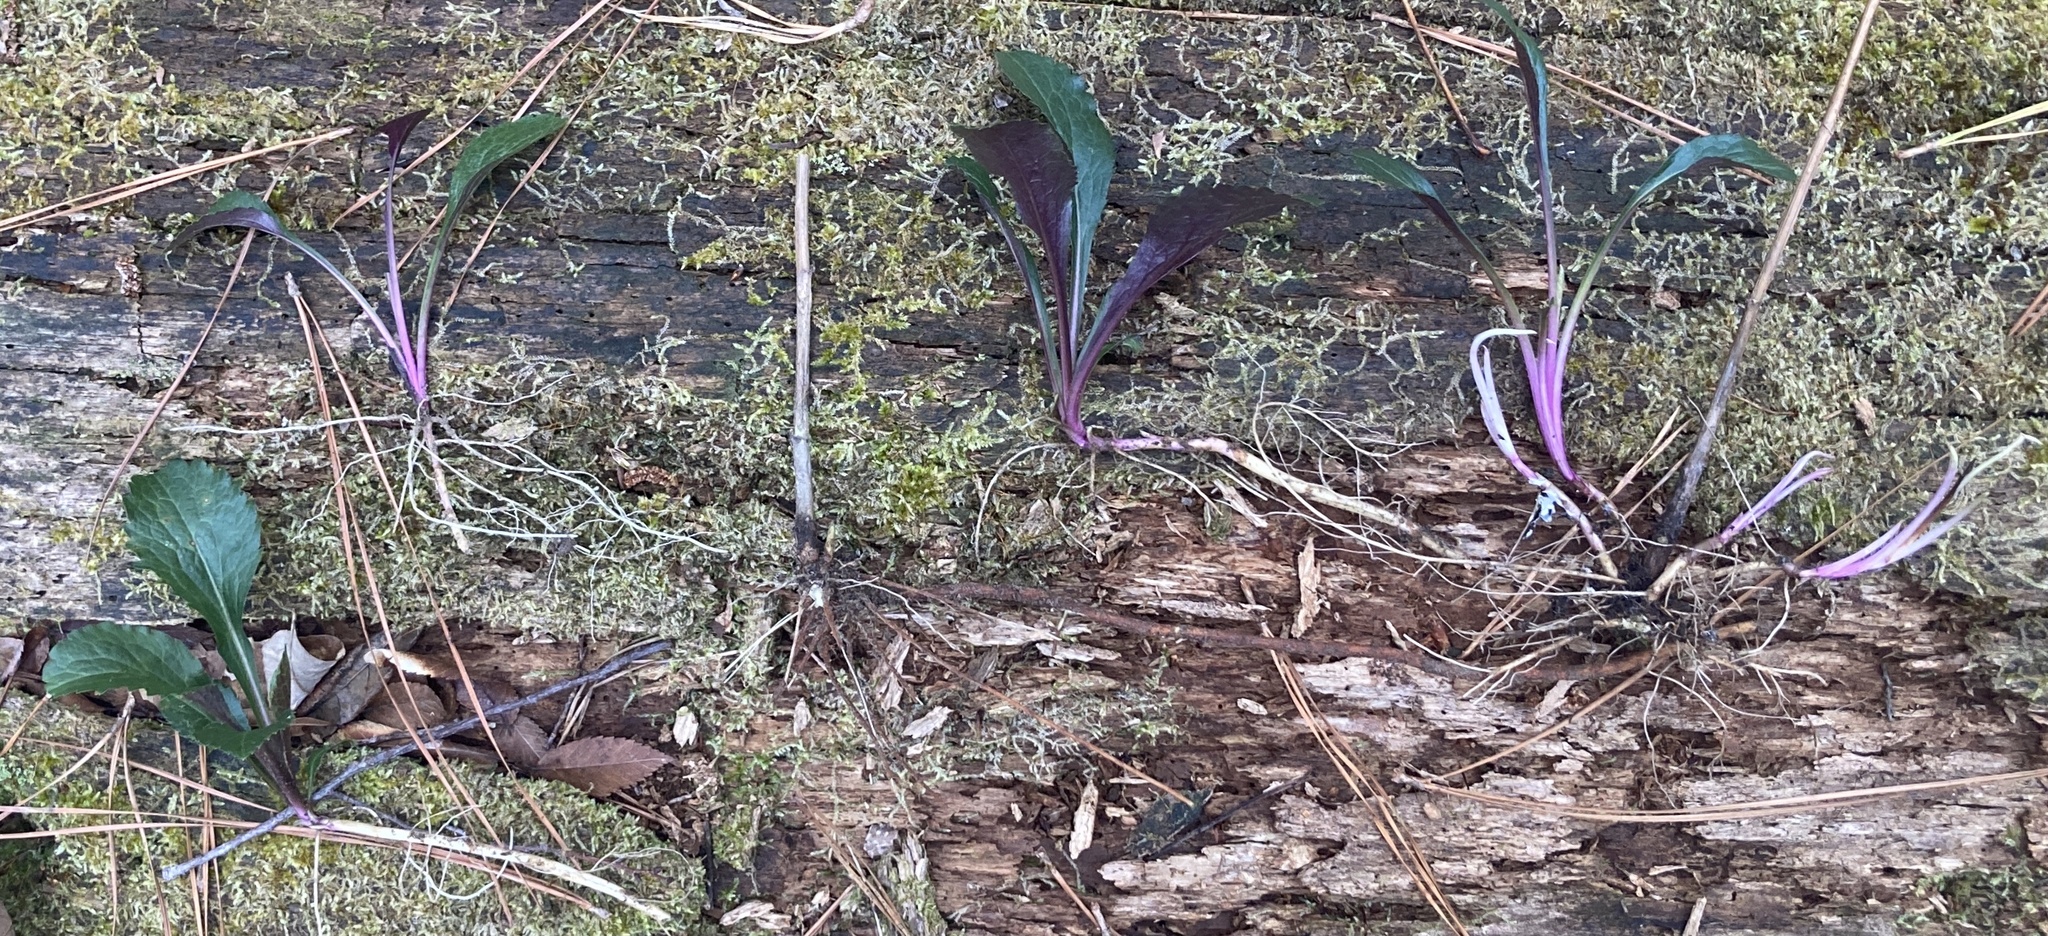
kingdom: Plantae
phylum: Tracheophyta
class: Magnoliopsida
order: Asterales
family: Asteraceae
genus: Solidago
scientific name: Solidago rugosa
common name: Rough-stemmed goldenrod
